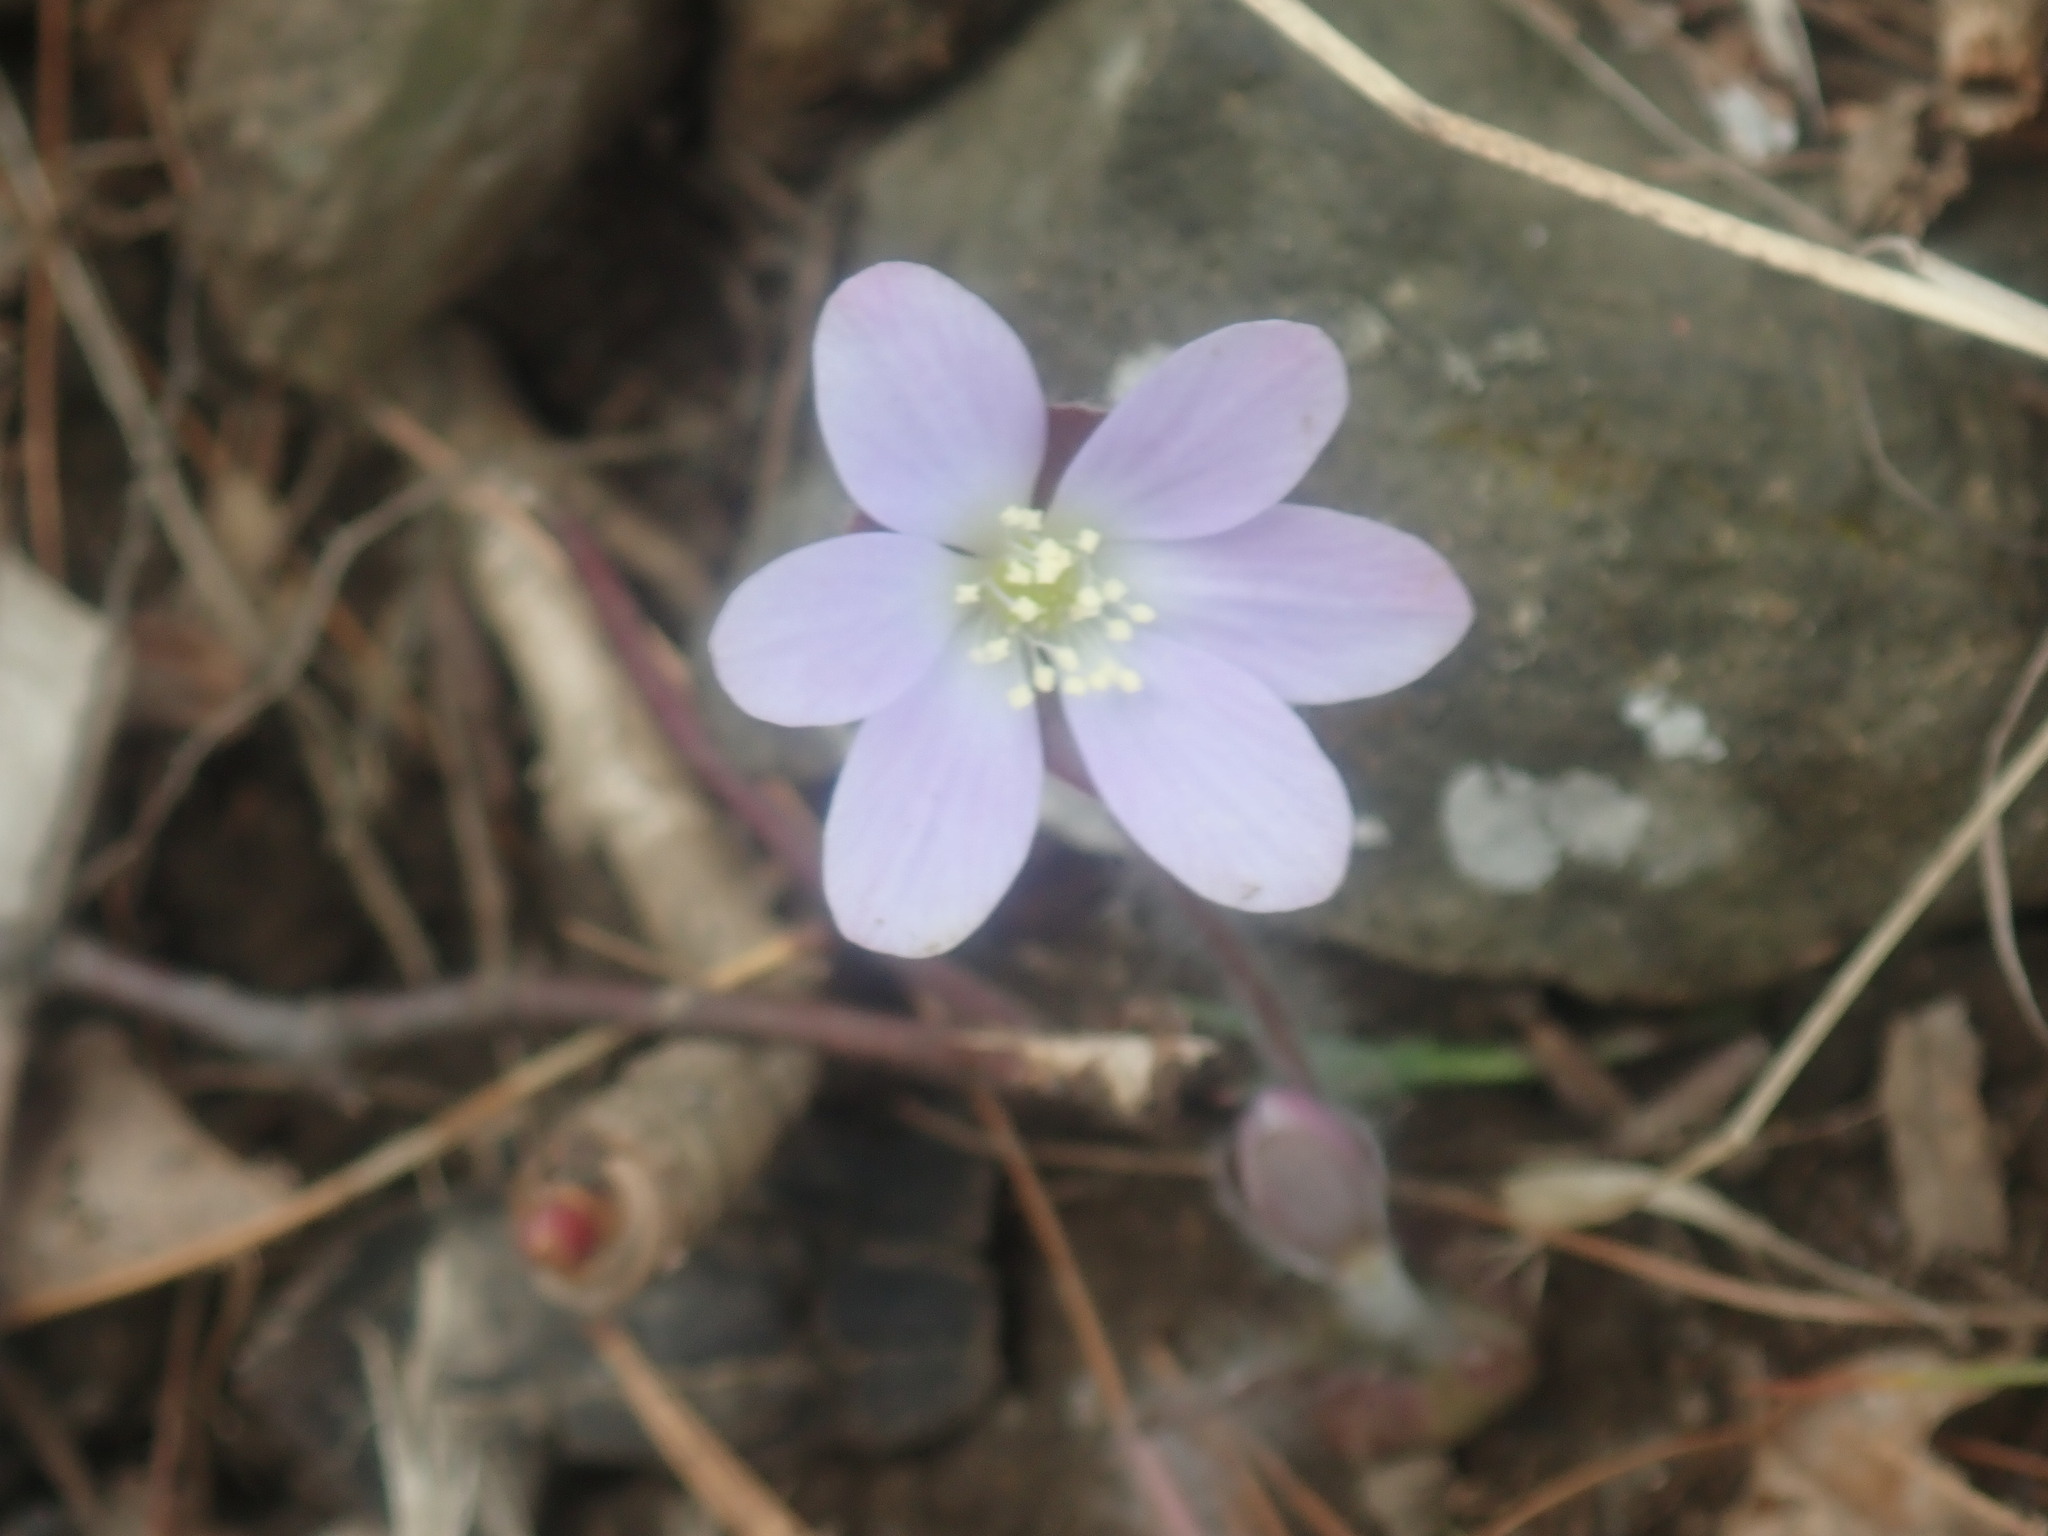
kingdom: Plantae
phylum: Tracheophyta
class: Magnoliopsida
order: Ranunculales
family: Ranunculaceae
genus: Hepatica
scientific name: Hepatica americana
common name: American hepatica
